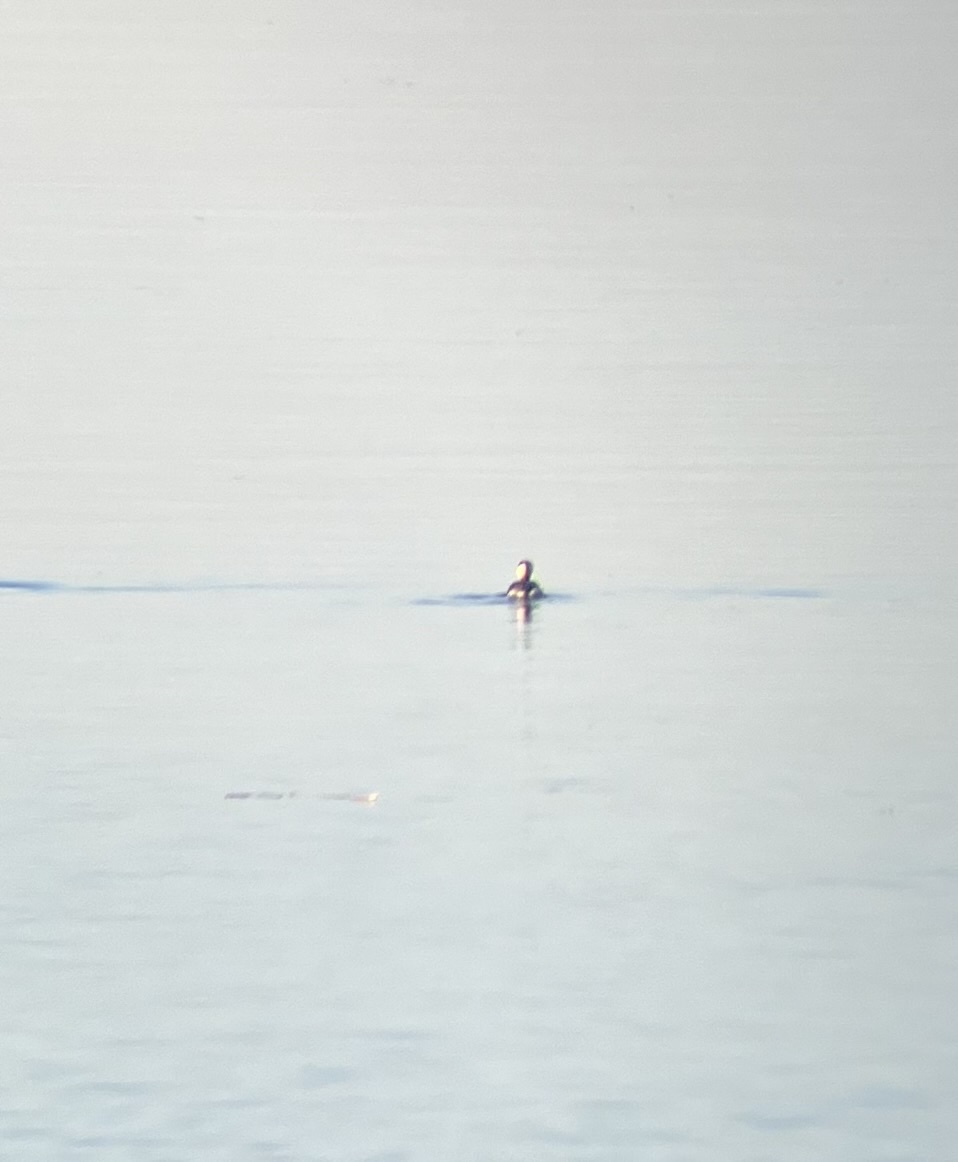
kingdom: Animalia
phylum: Chordata
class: Aves
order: Podicipediformes
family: Podicipedidae
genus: Podiceps
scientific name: Podiceps auritus
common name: Horned grebe
